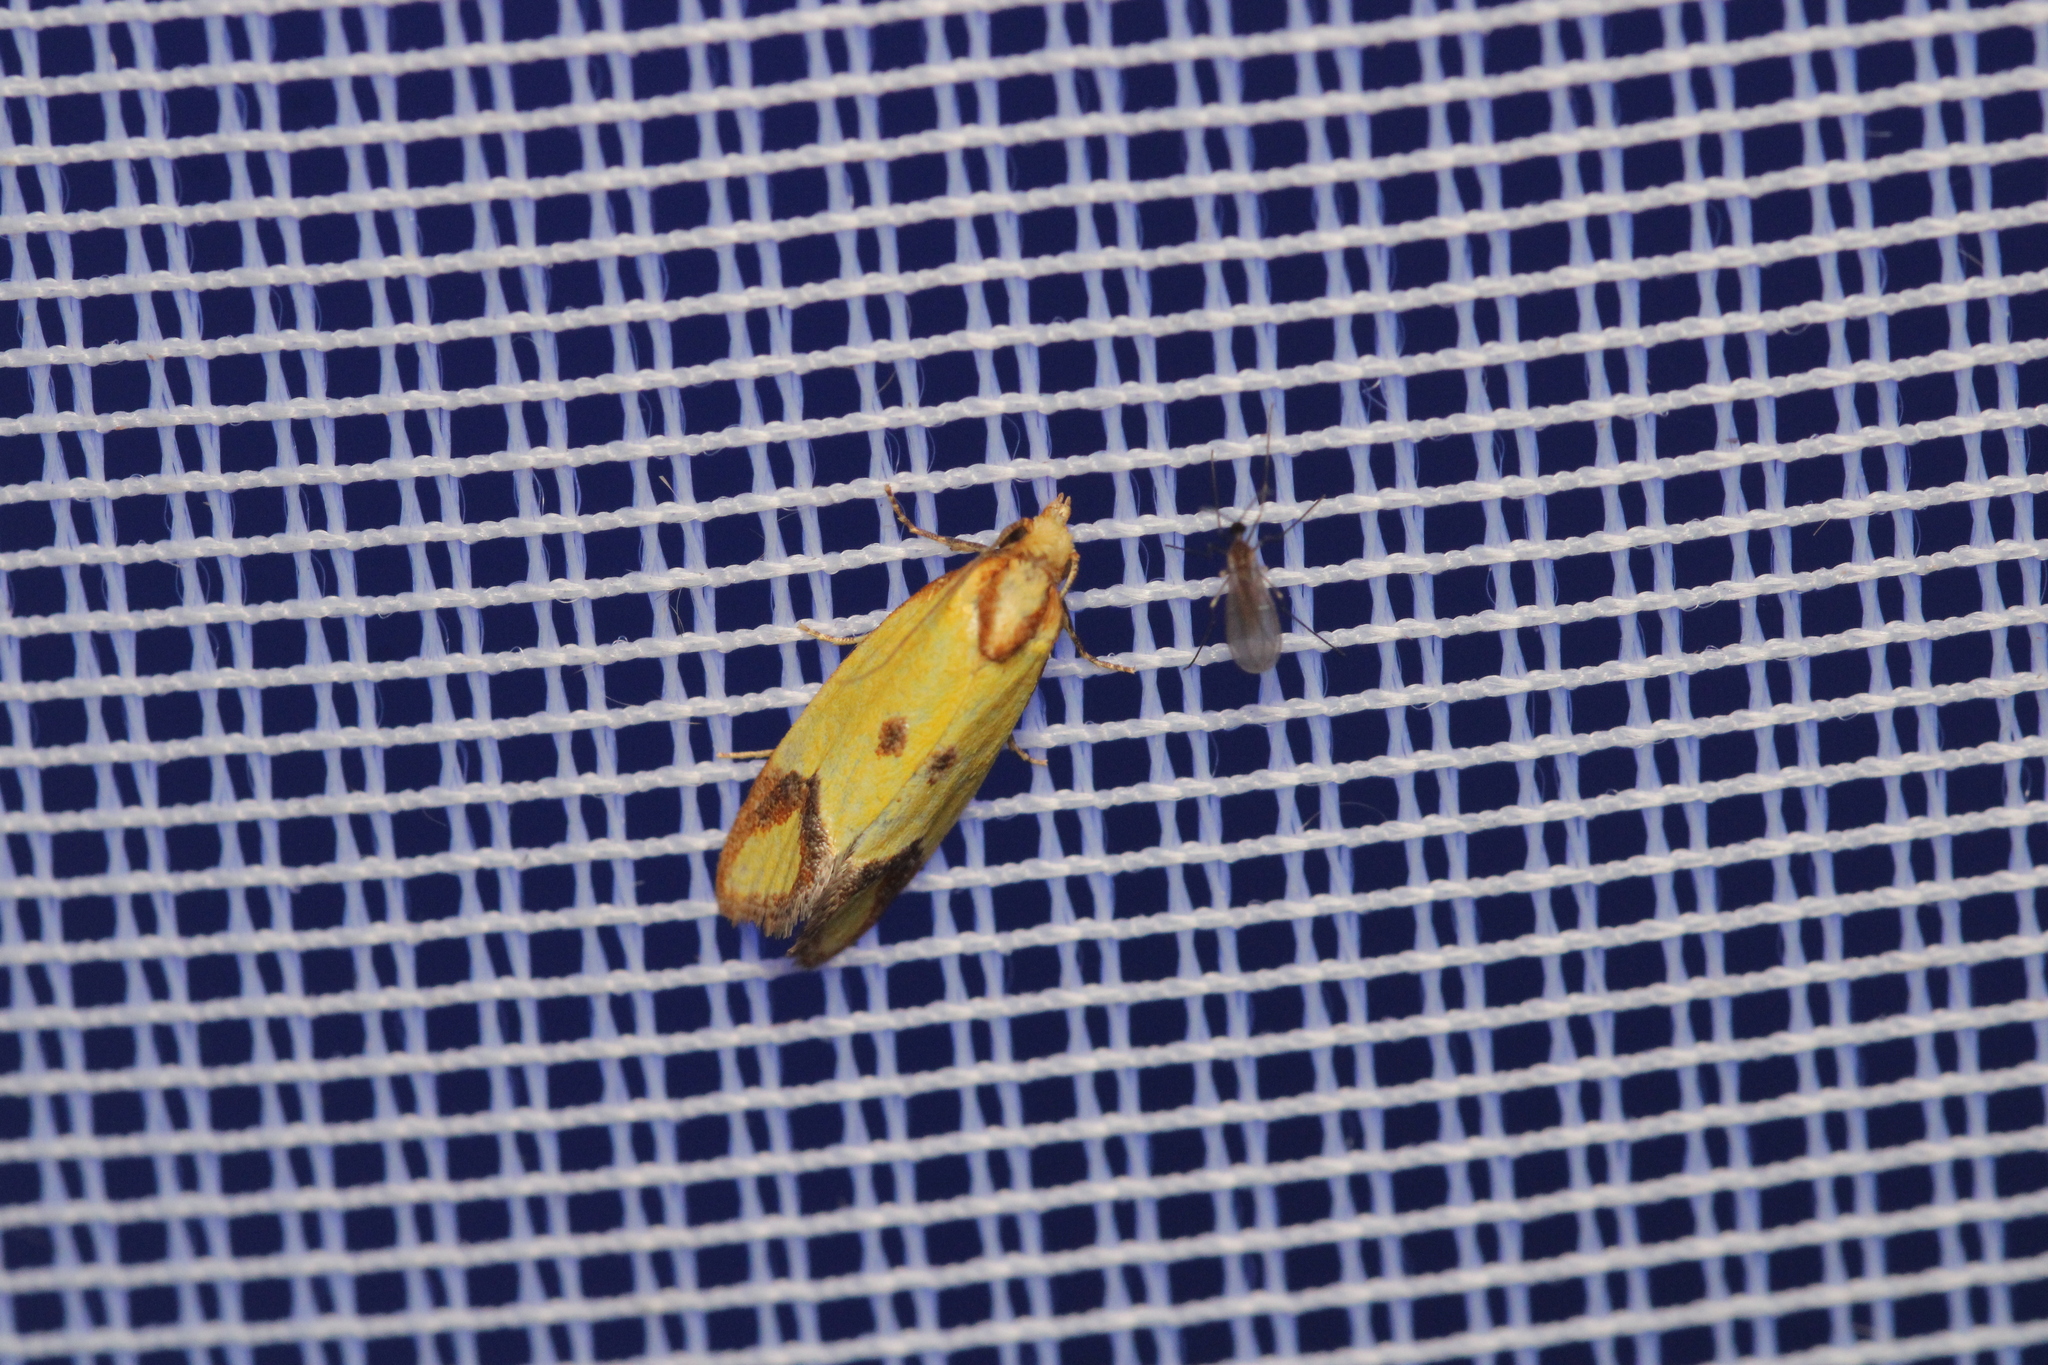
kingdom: Animalia
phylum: Arthropoda
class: Insecta
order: Lepidoptera
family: Tortricidae
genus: Agapeta
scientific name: Agapeta zoegana
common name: Sulfur knapweed root moth
